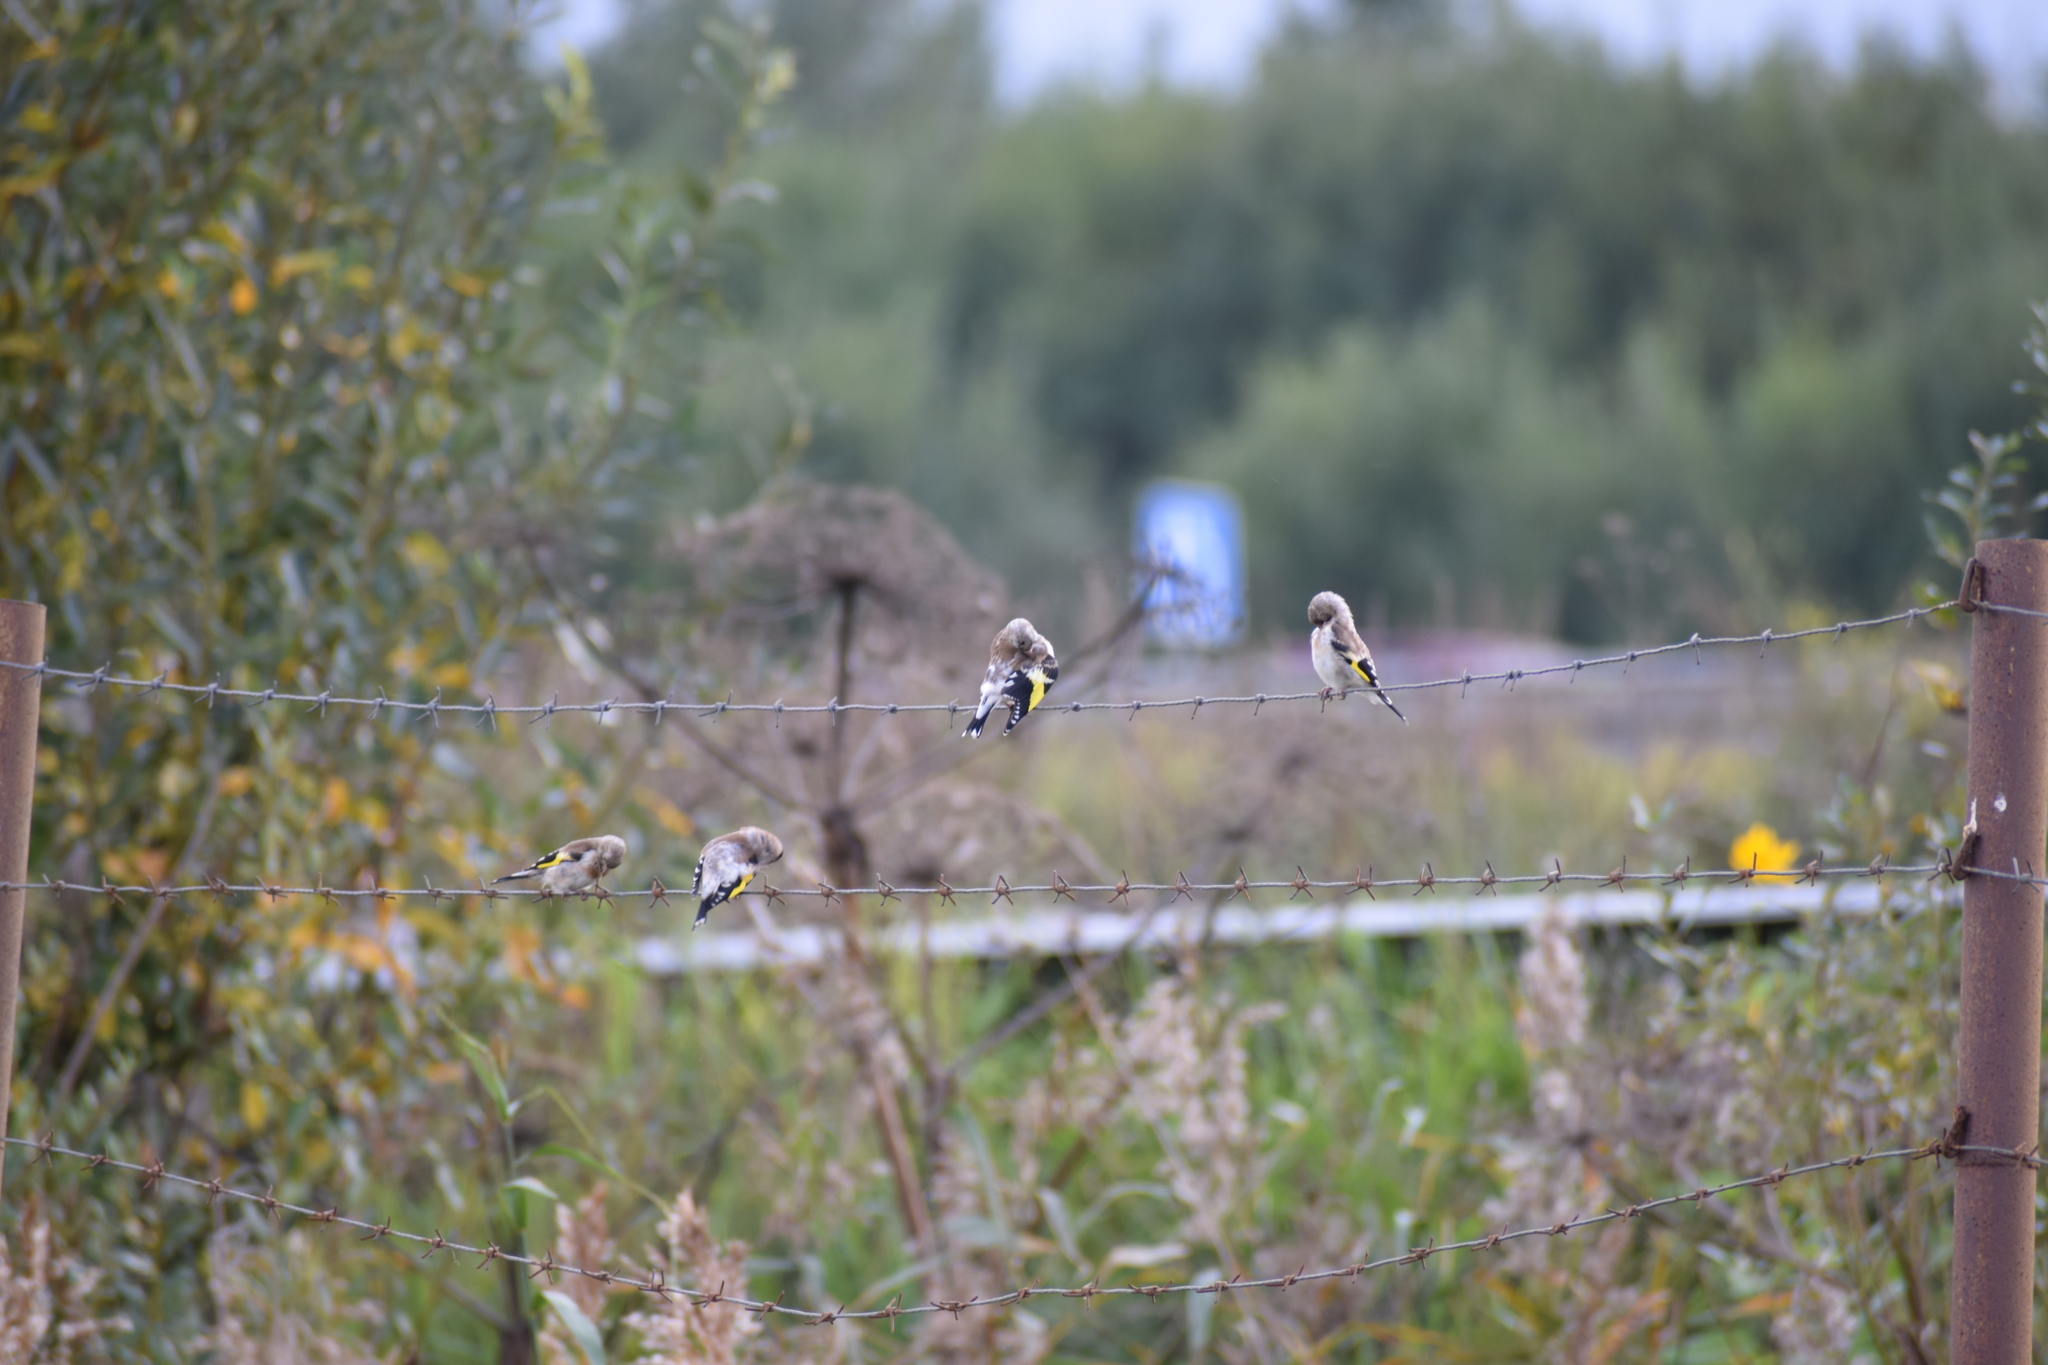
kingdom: Animalia
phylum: Chordata
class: Aves
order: Passeriformes
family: Fringillidae
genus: Carduelis
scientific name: Carduelis carduelis
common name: European goldfinch
